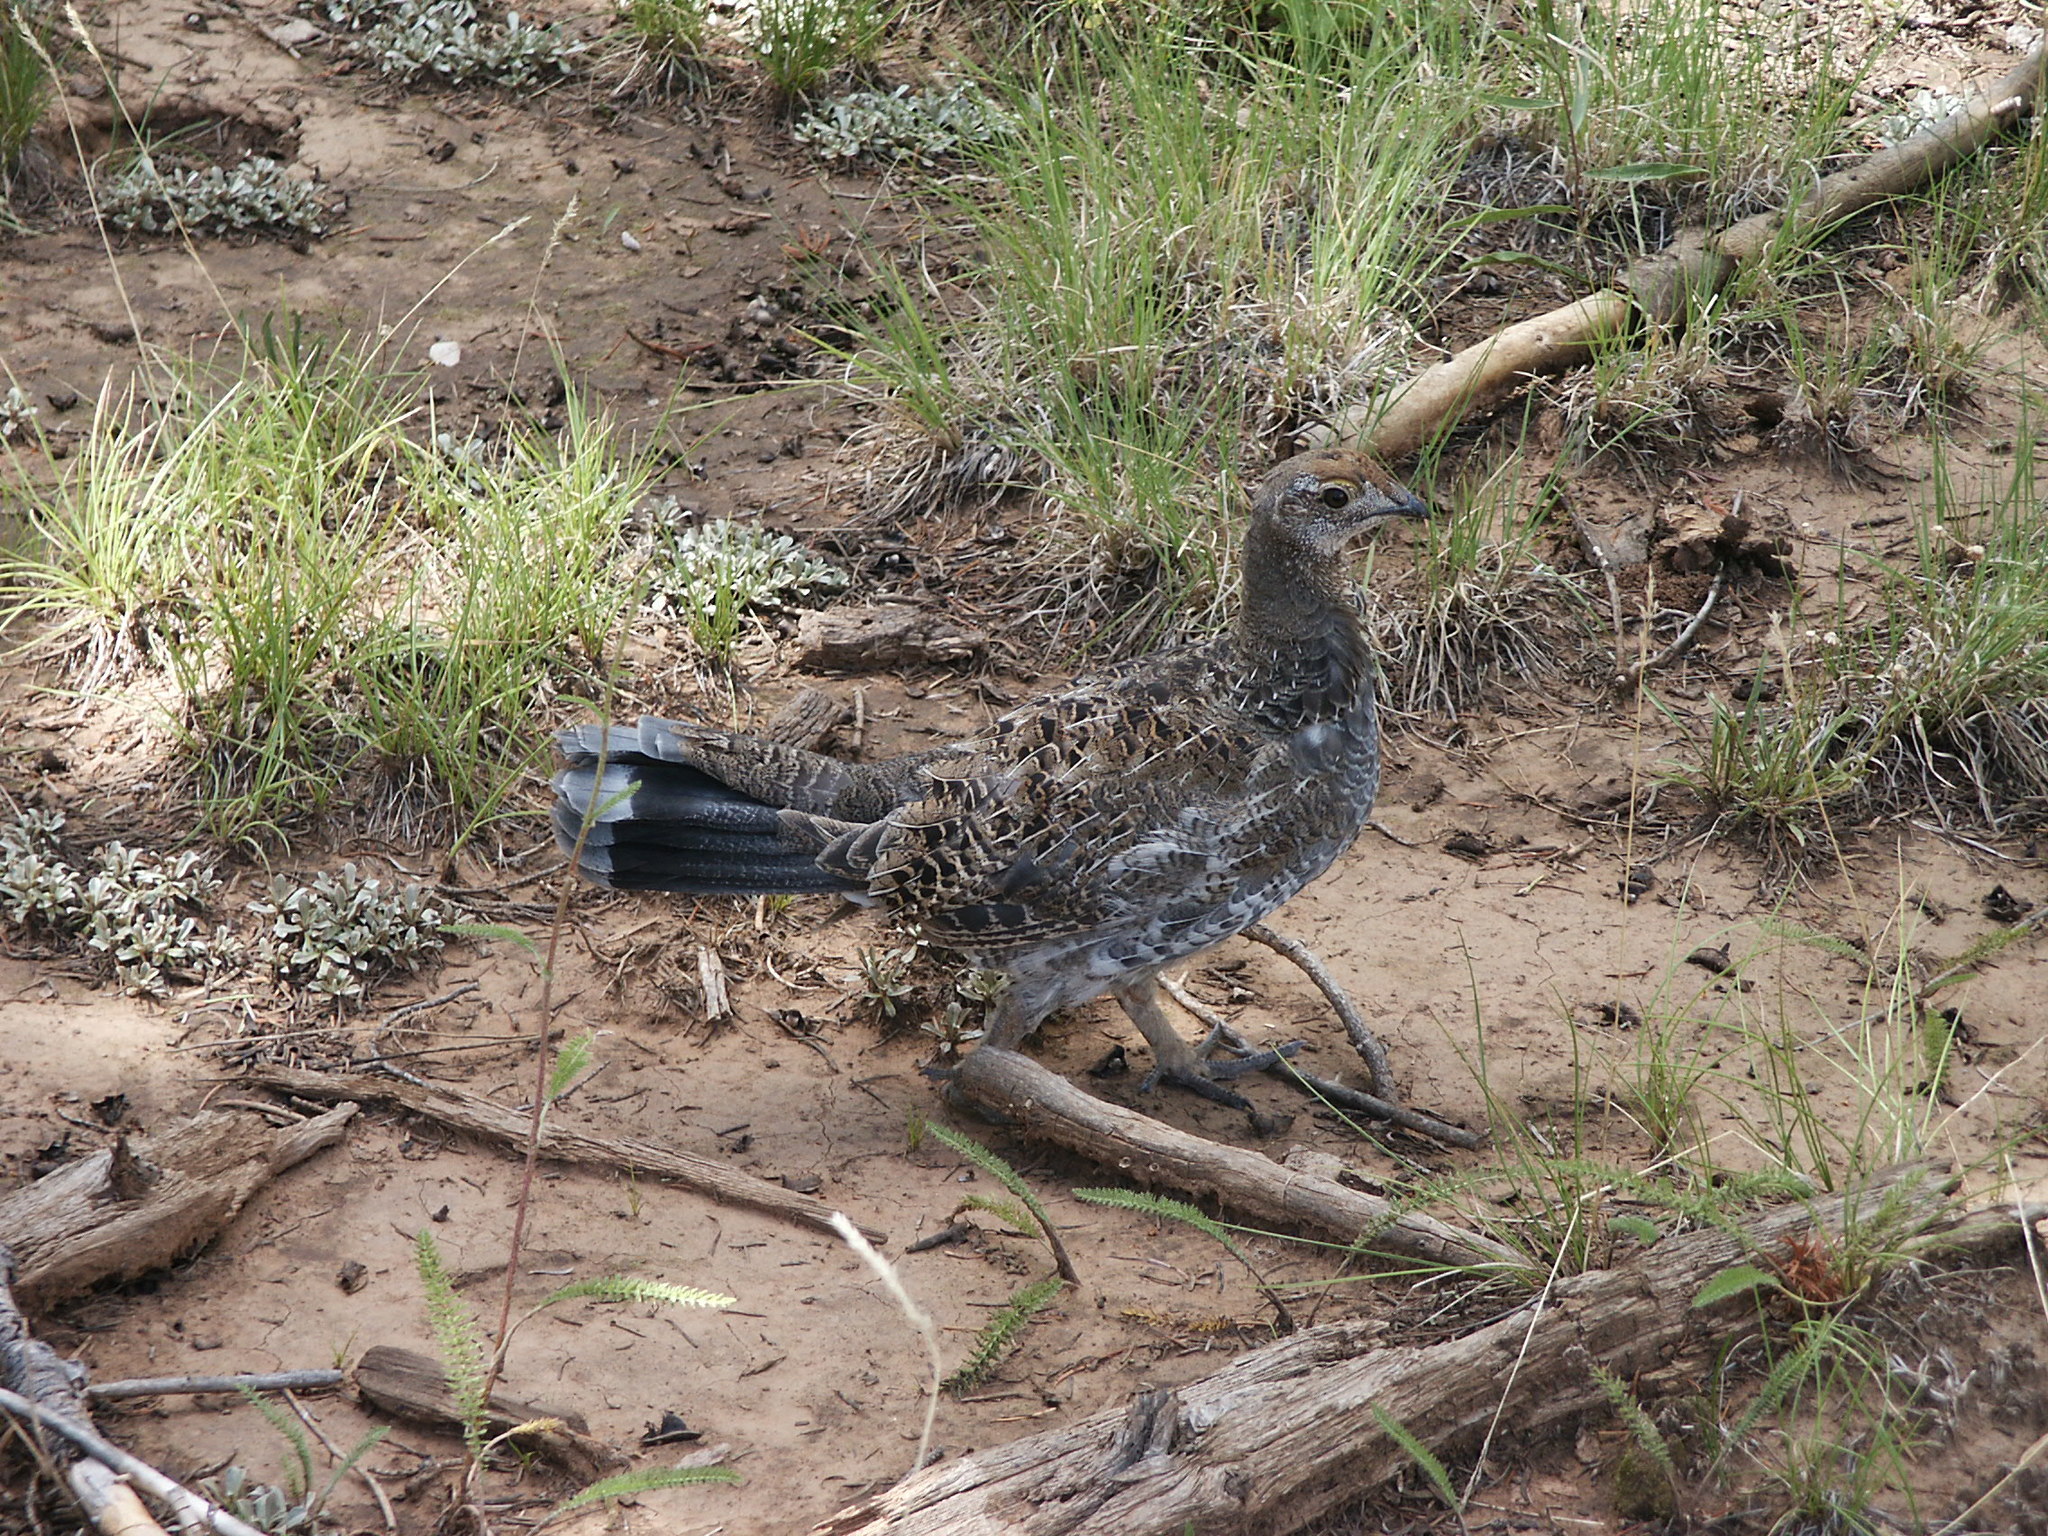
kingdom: Animalia
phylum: Chordata
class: Aves
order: Galliformes
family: Phasianidae
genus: Dendragapus
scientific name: Dendragapus obscurus
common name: Dusky grouse
